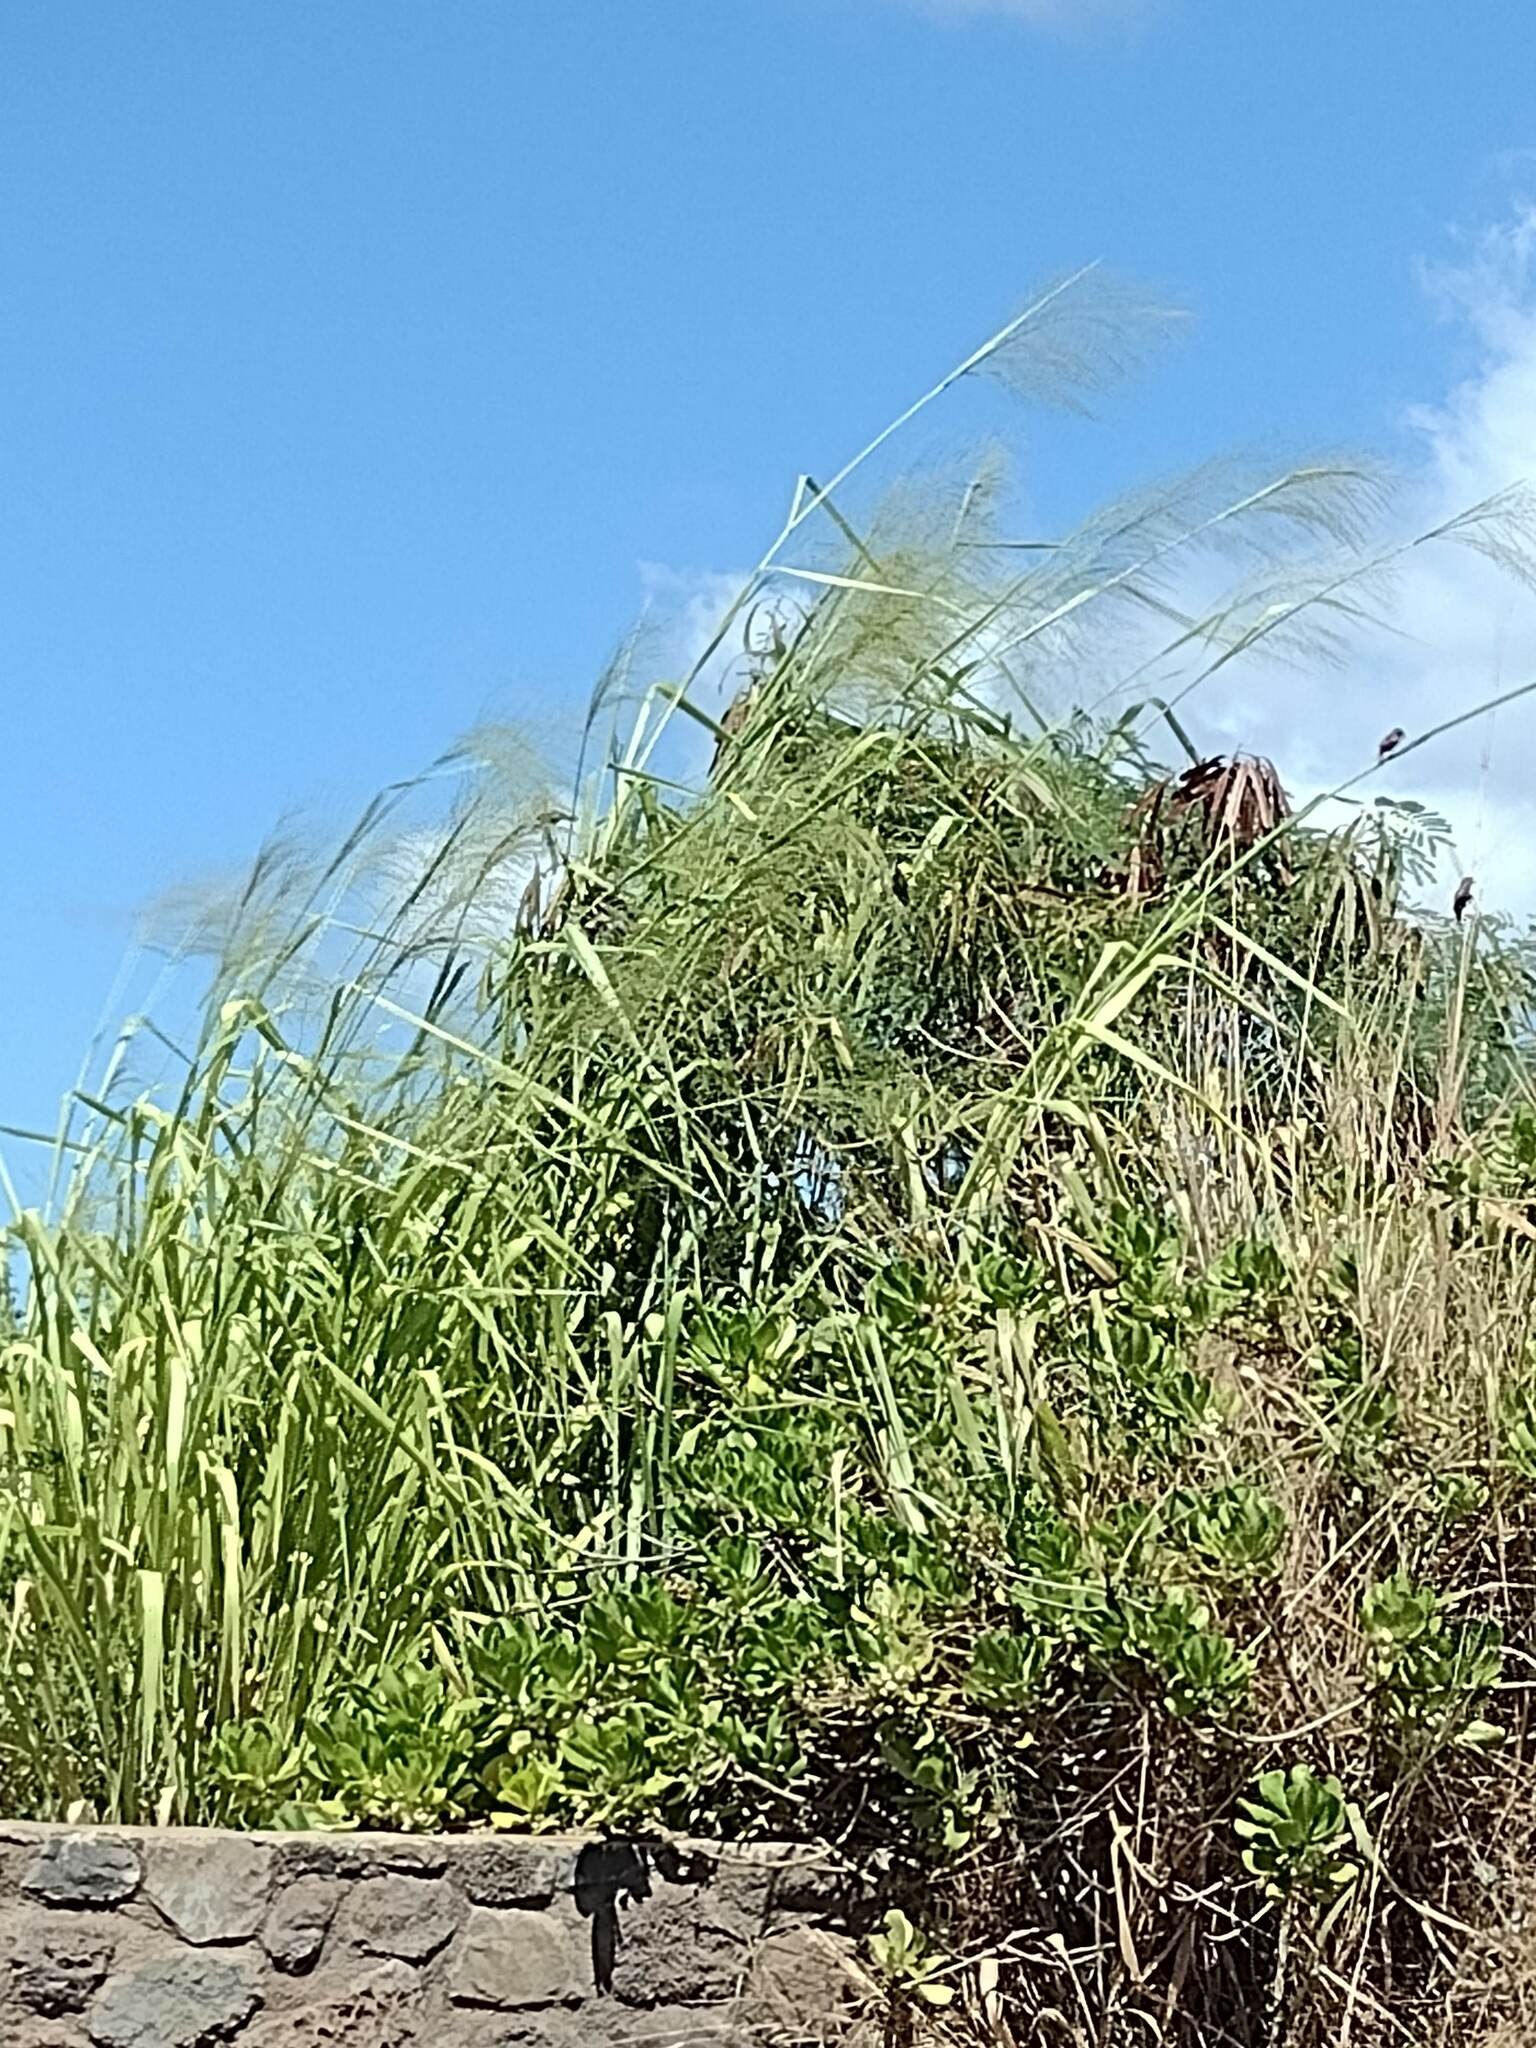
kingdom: Plantae
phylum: Tracheophyta
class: Liliopsida
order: Poales
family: Poaceae
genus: Megathyrsus
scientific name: Megathyrsus maximus
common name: Guineagrass
